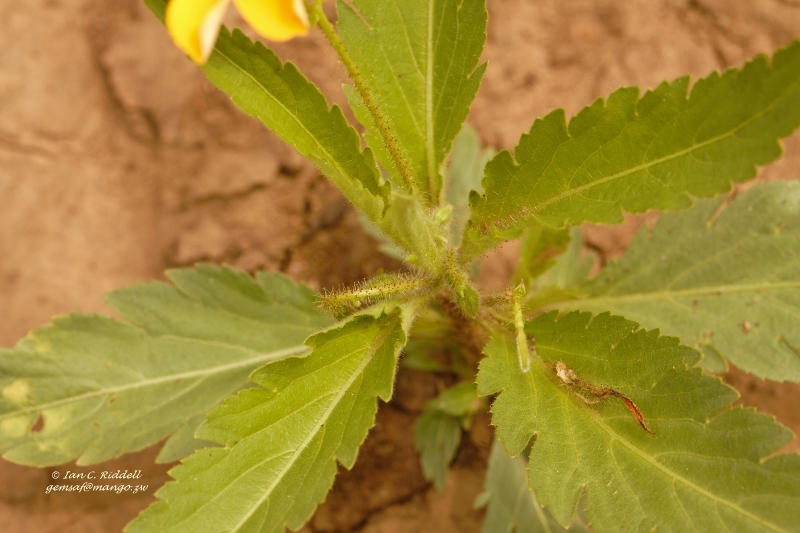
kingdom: Plantae
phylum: Tracheophyta
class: Magnoliopsida
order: Malpighiales
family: Turneraceae
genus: Tricliceras
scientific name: Tricliceras glanduliferum
